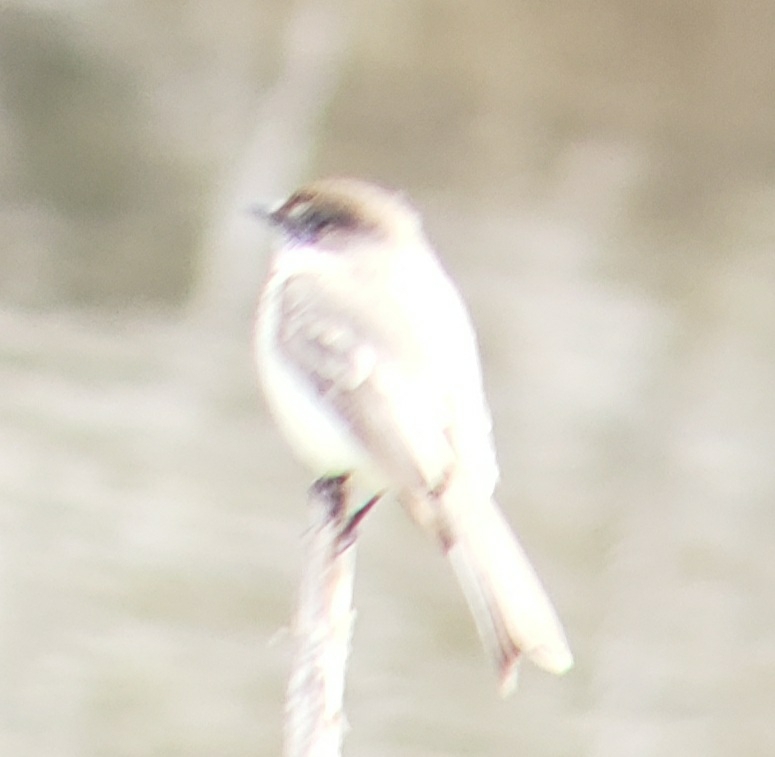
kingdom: Animalia
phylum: Chordata
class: Aves
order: Passeriformes
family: Tyrannidae
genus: Sayornis
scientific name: Sayornis phoebe
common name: Eastern phoebe
